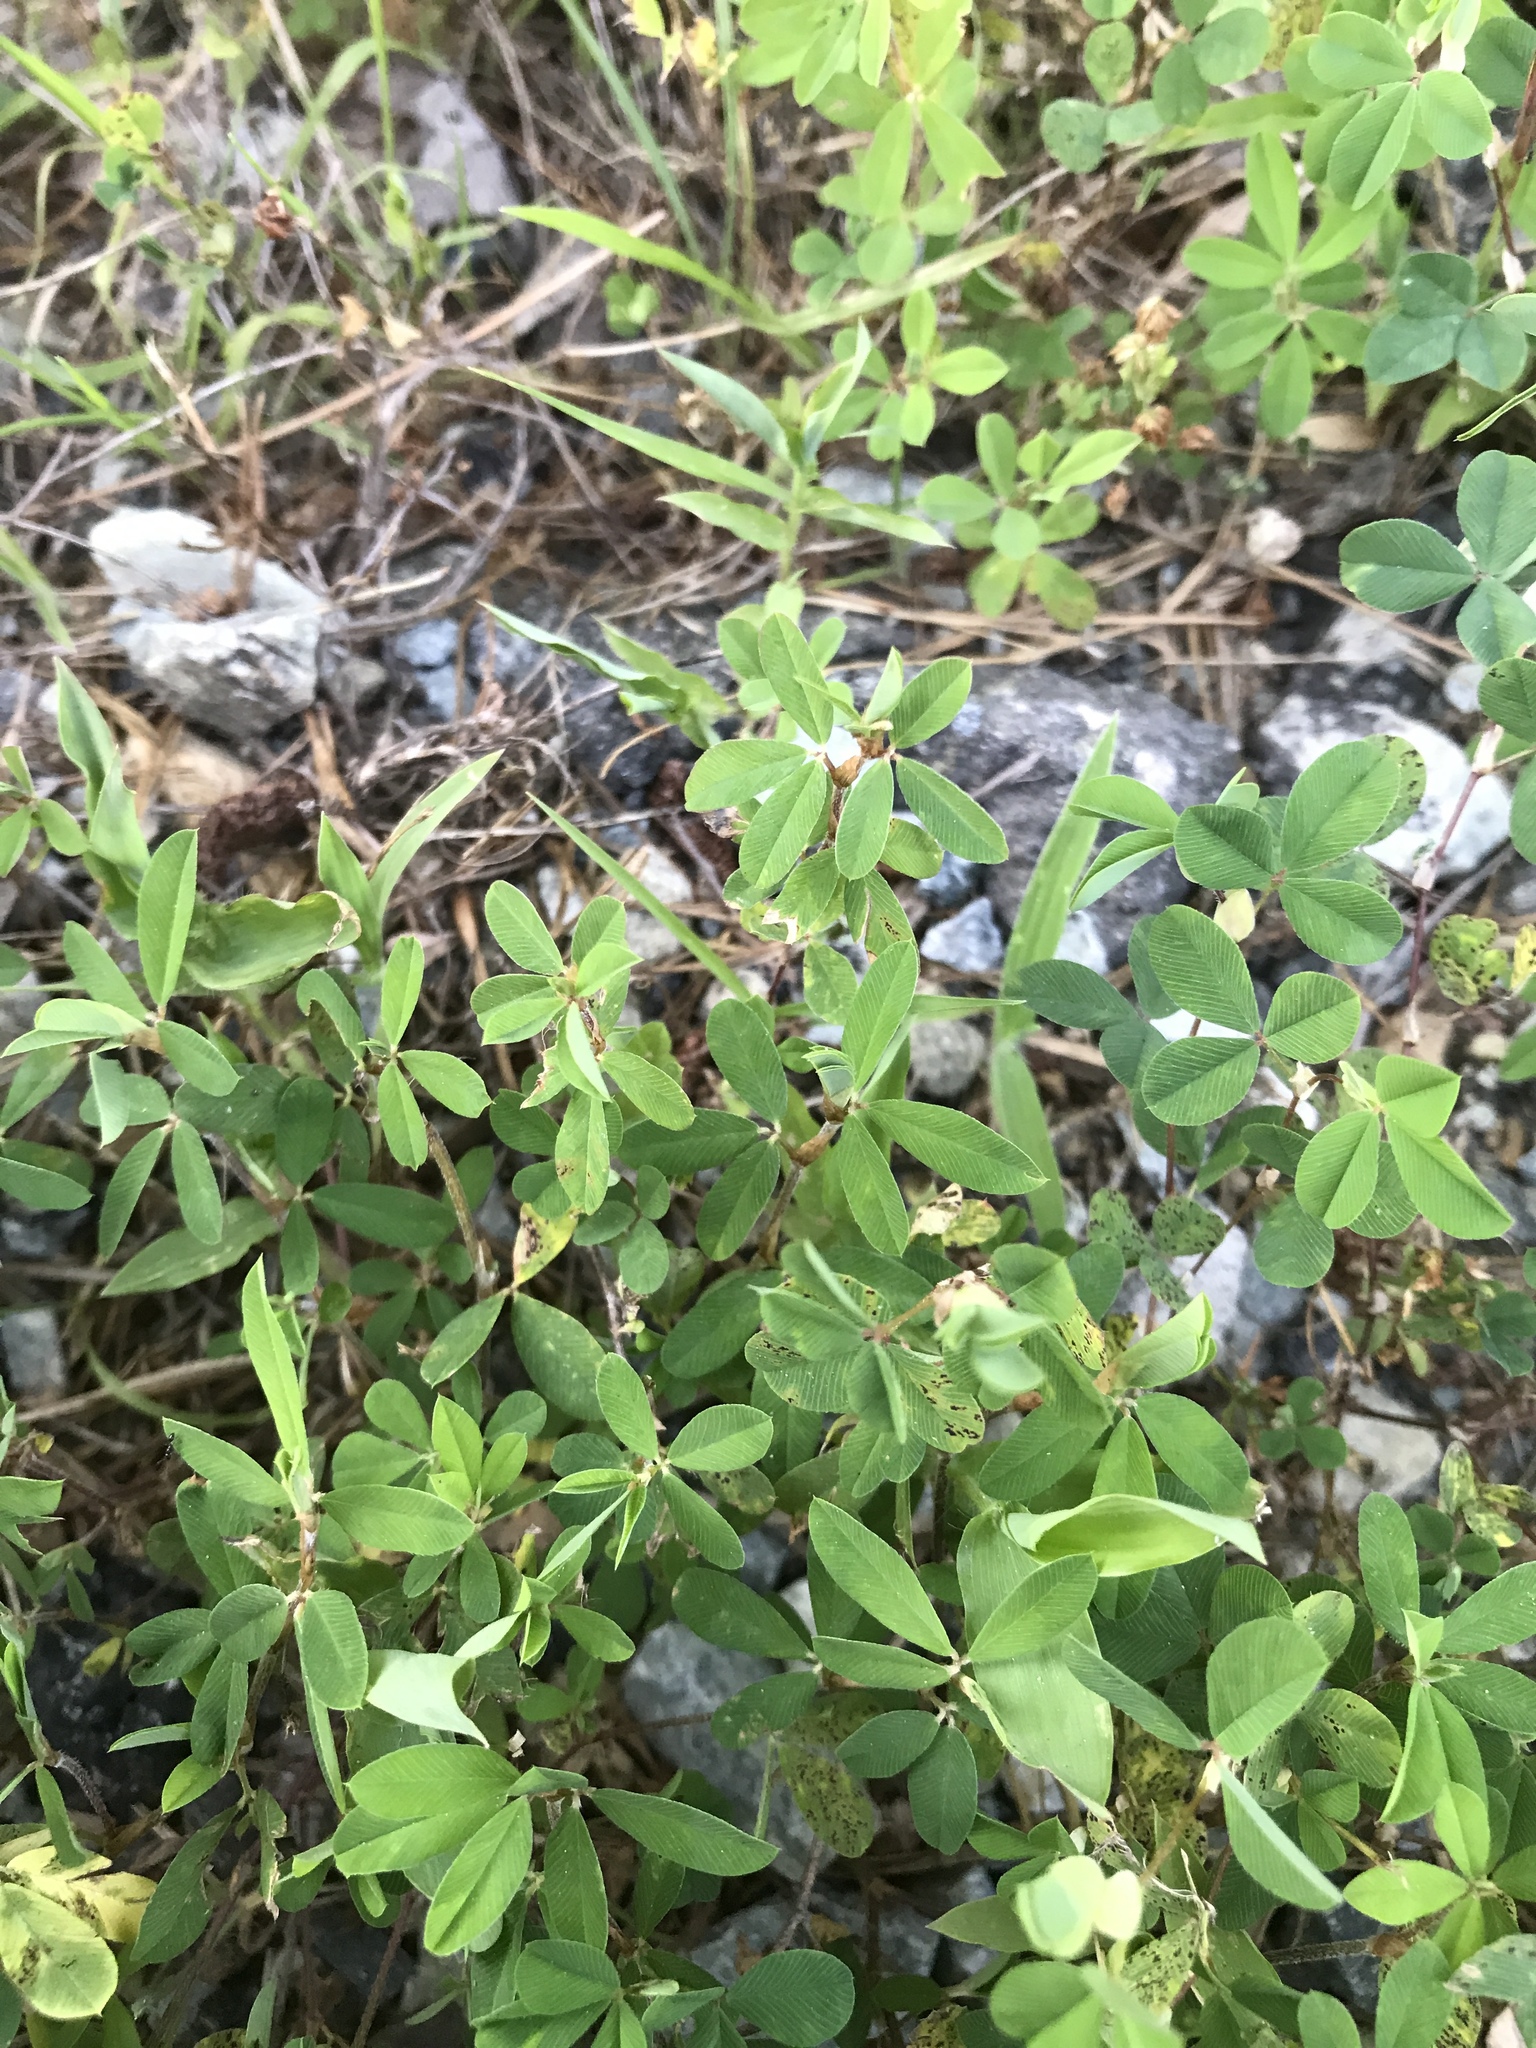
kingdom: Plantae
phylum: Tracheophyta
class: Magnoliopsida
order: Fabales
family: Fabaceae
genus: Kummerowia
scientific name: Kummerowia striata
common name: Japanese clover
